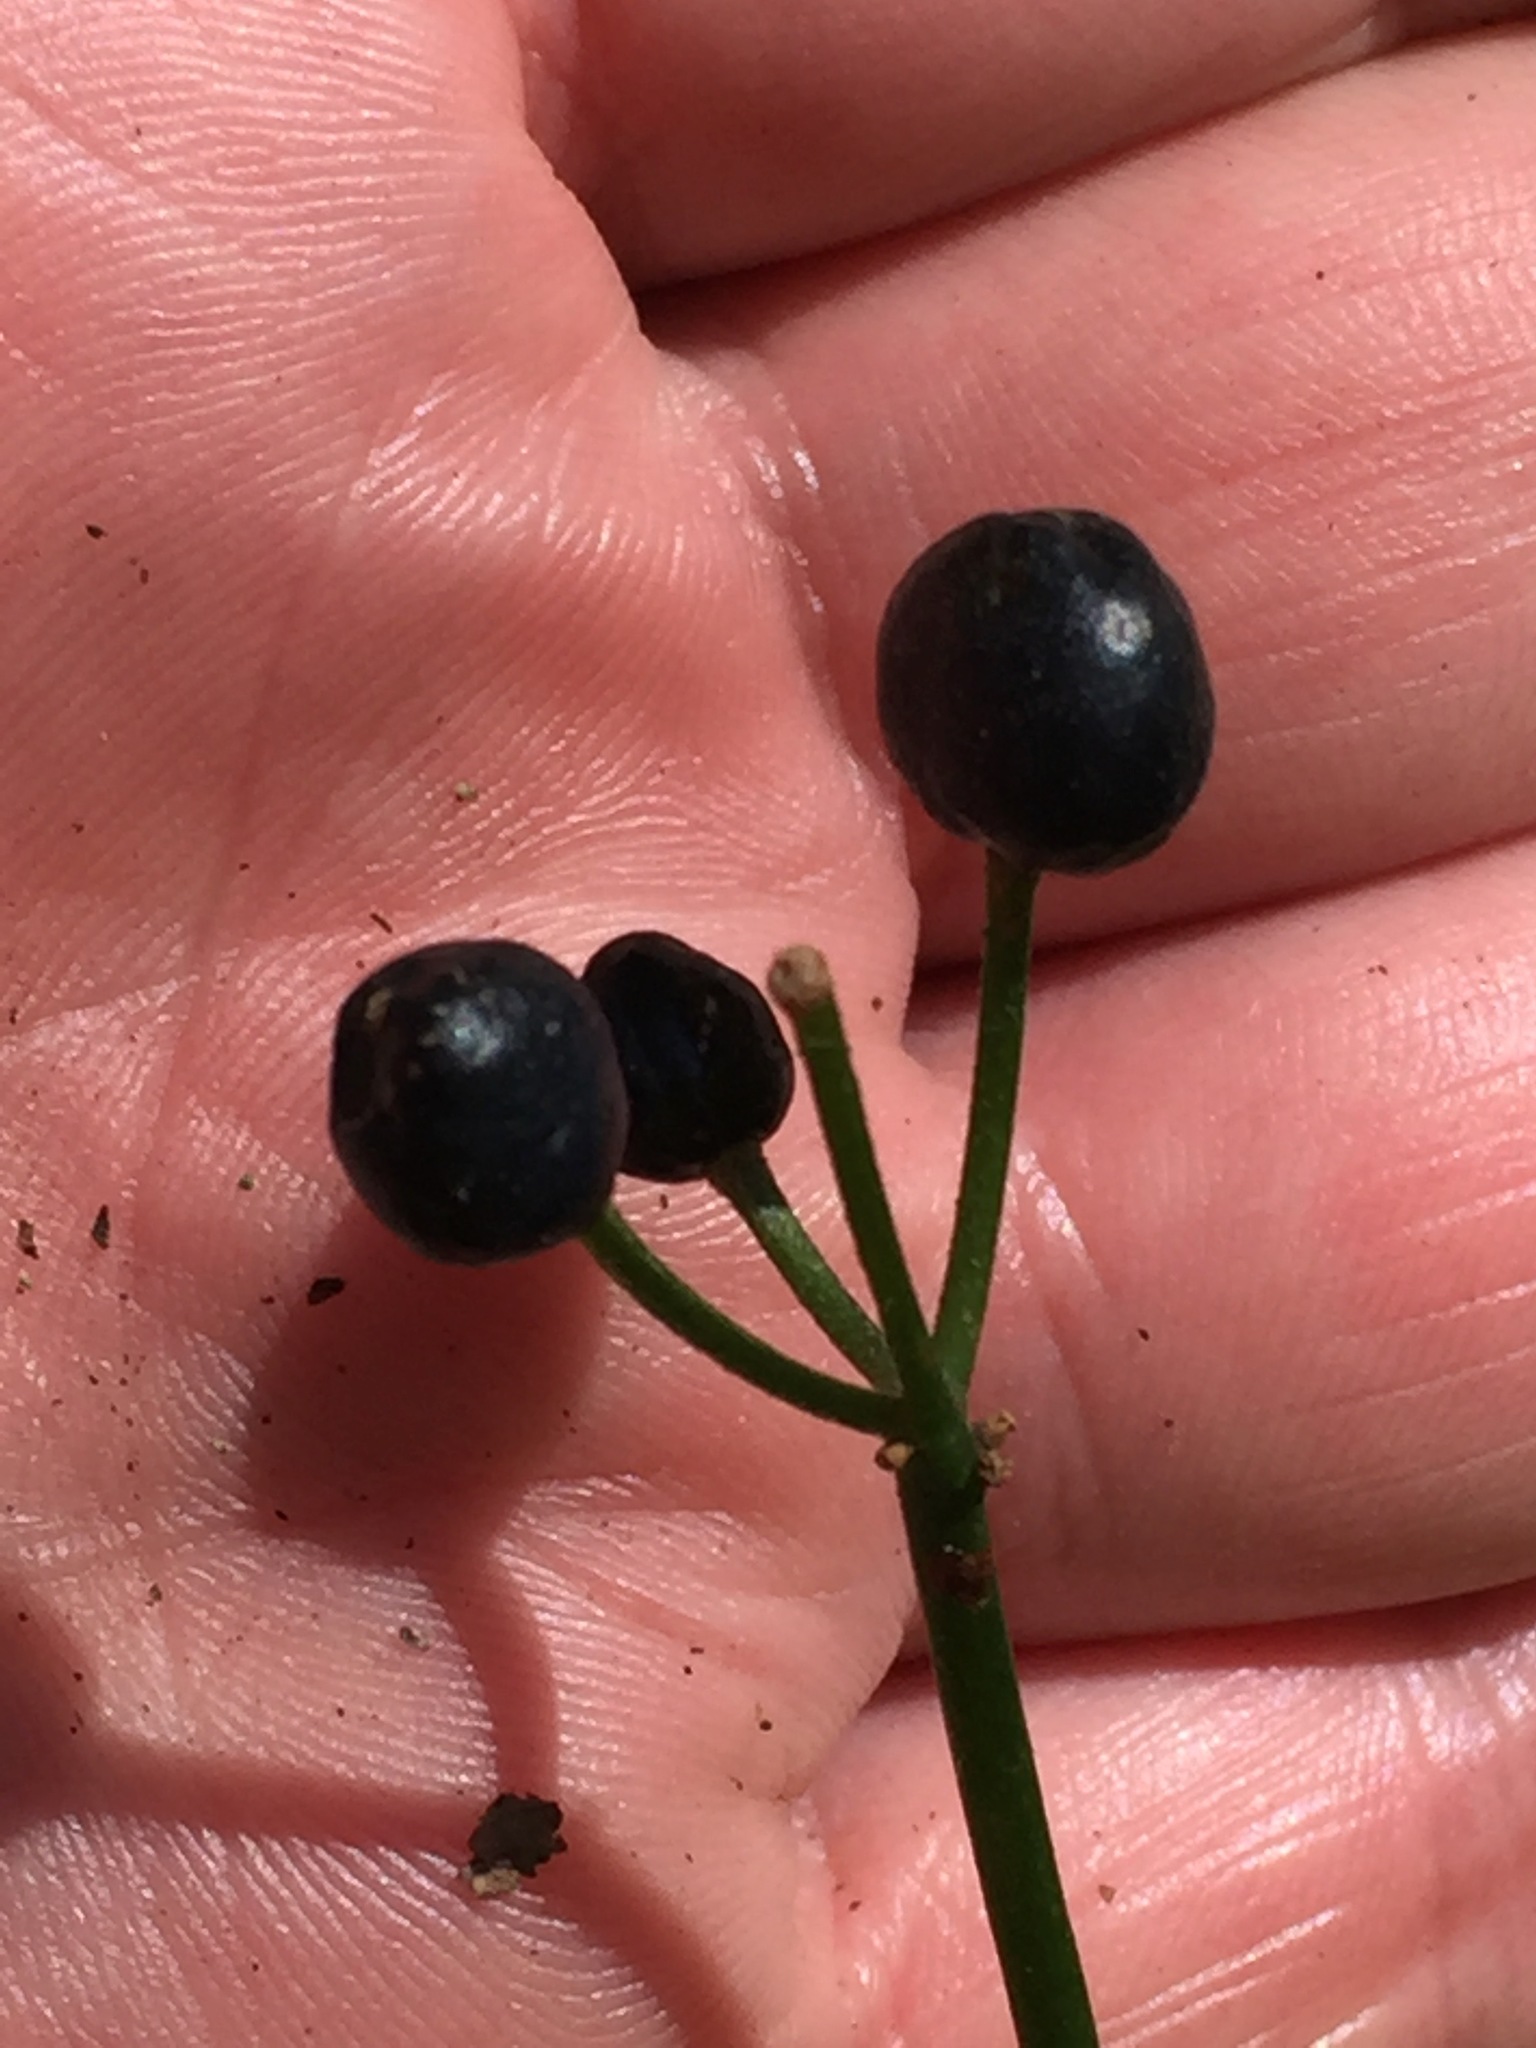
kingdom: Plantae
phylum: Tracheophyta
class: Liliopsida
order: Liliales
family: Liliaceae
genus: Clintonia
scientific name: Clintonia borealis
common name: Yellow clintonia
